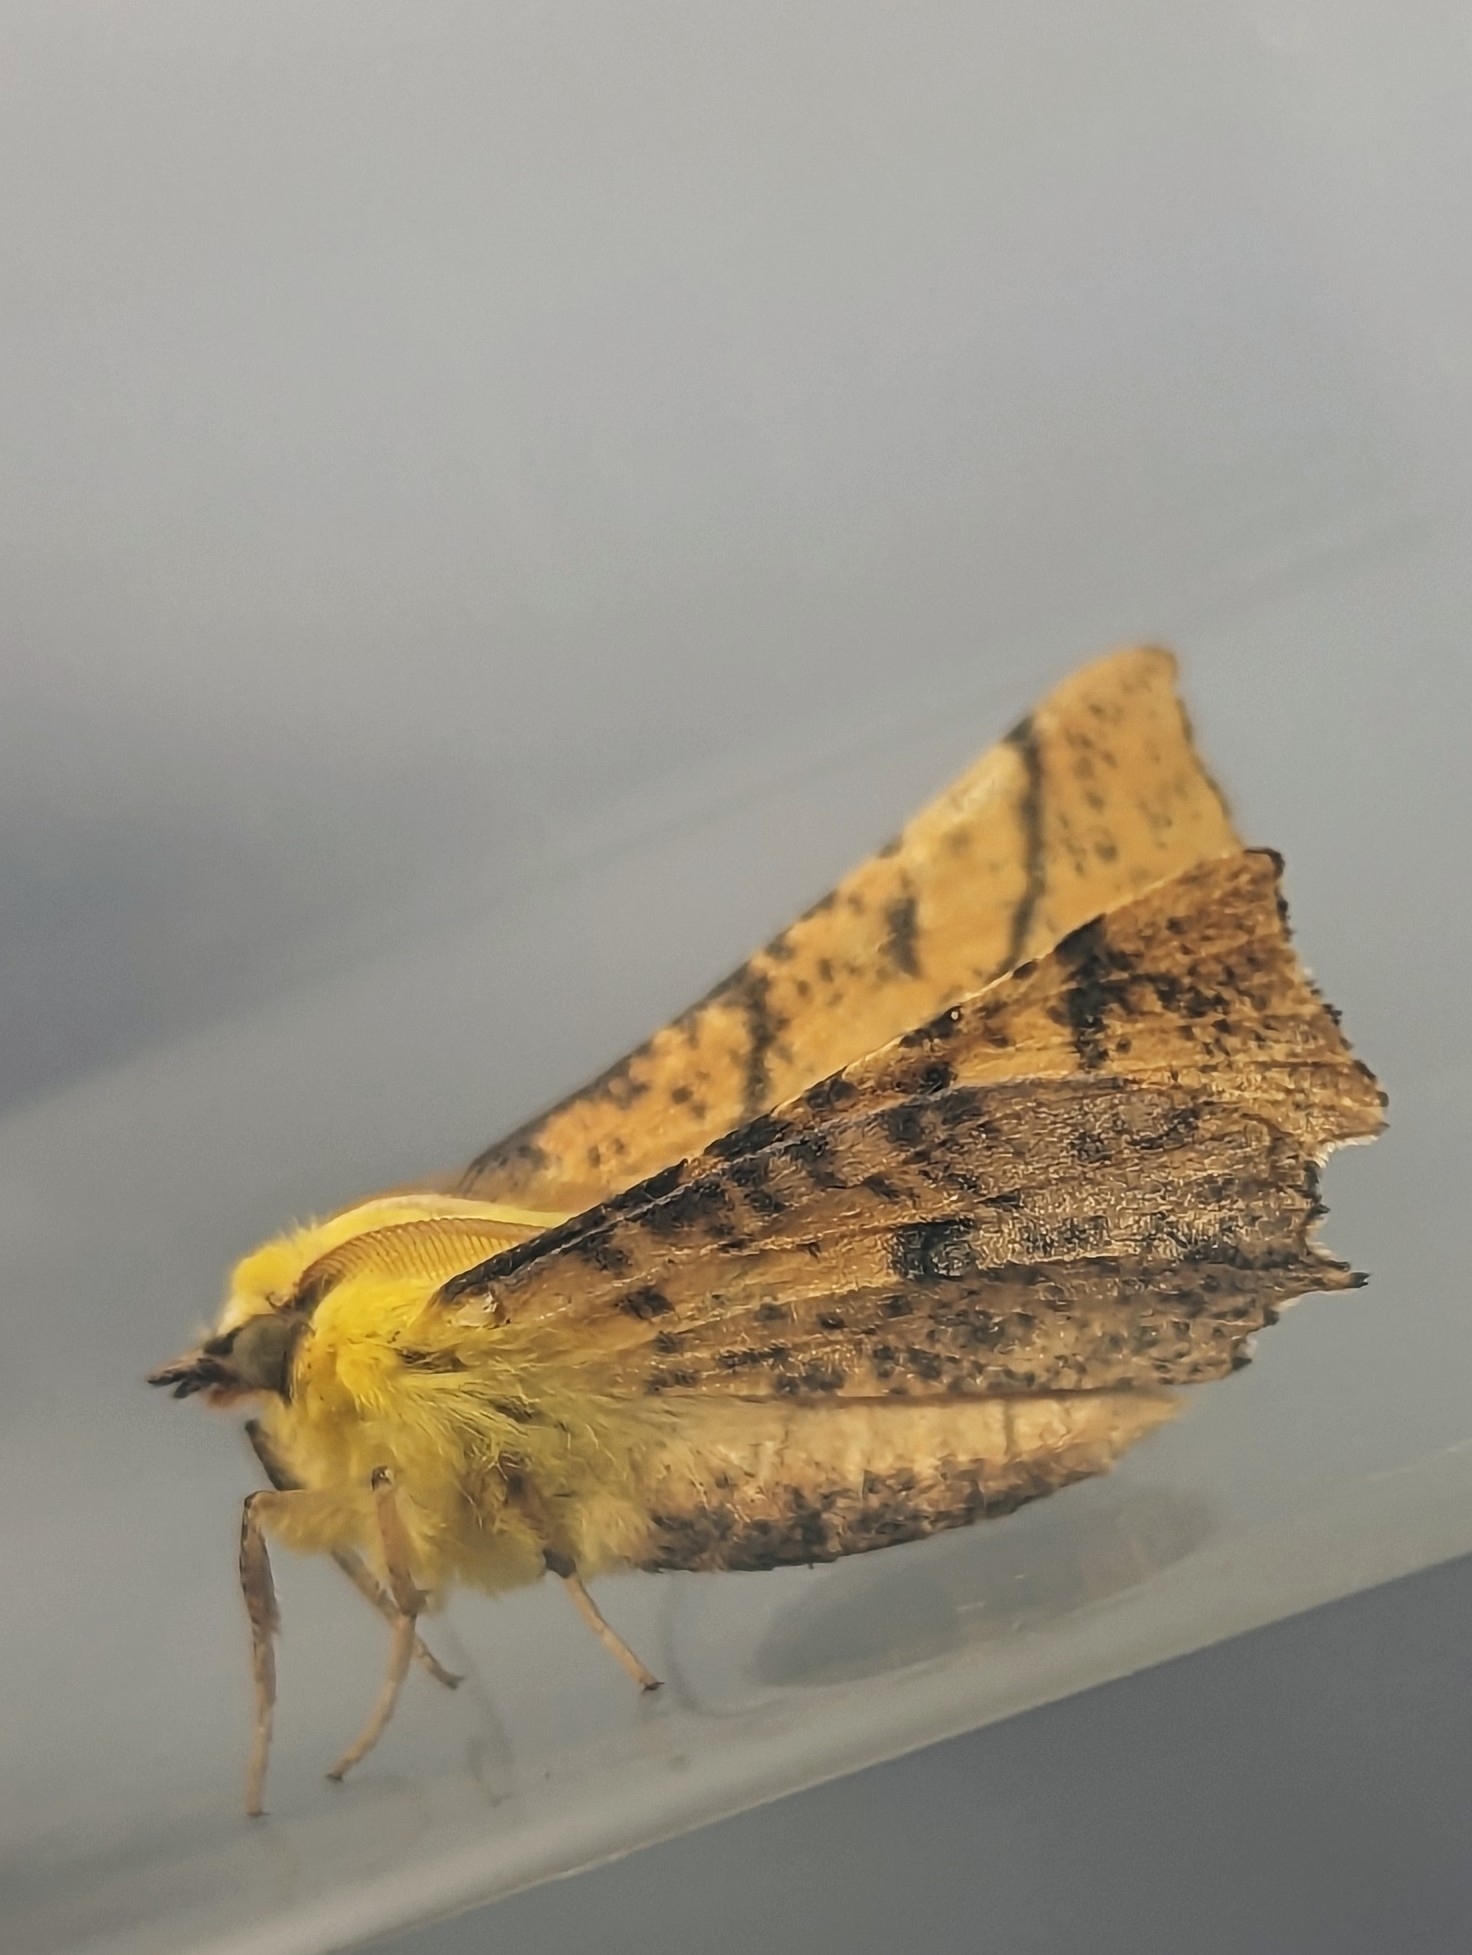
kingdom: Animalia
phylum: Arthropoda
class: Insecta
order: Lepidoptera
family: Geometridae
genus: Ennomos
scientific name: Ennomos alniaria
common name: Canary-shouldered thorn
